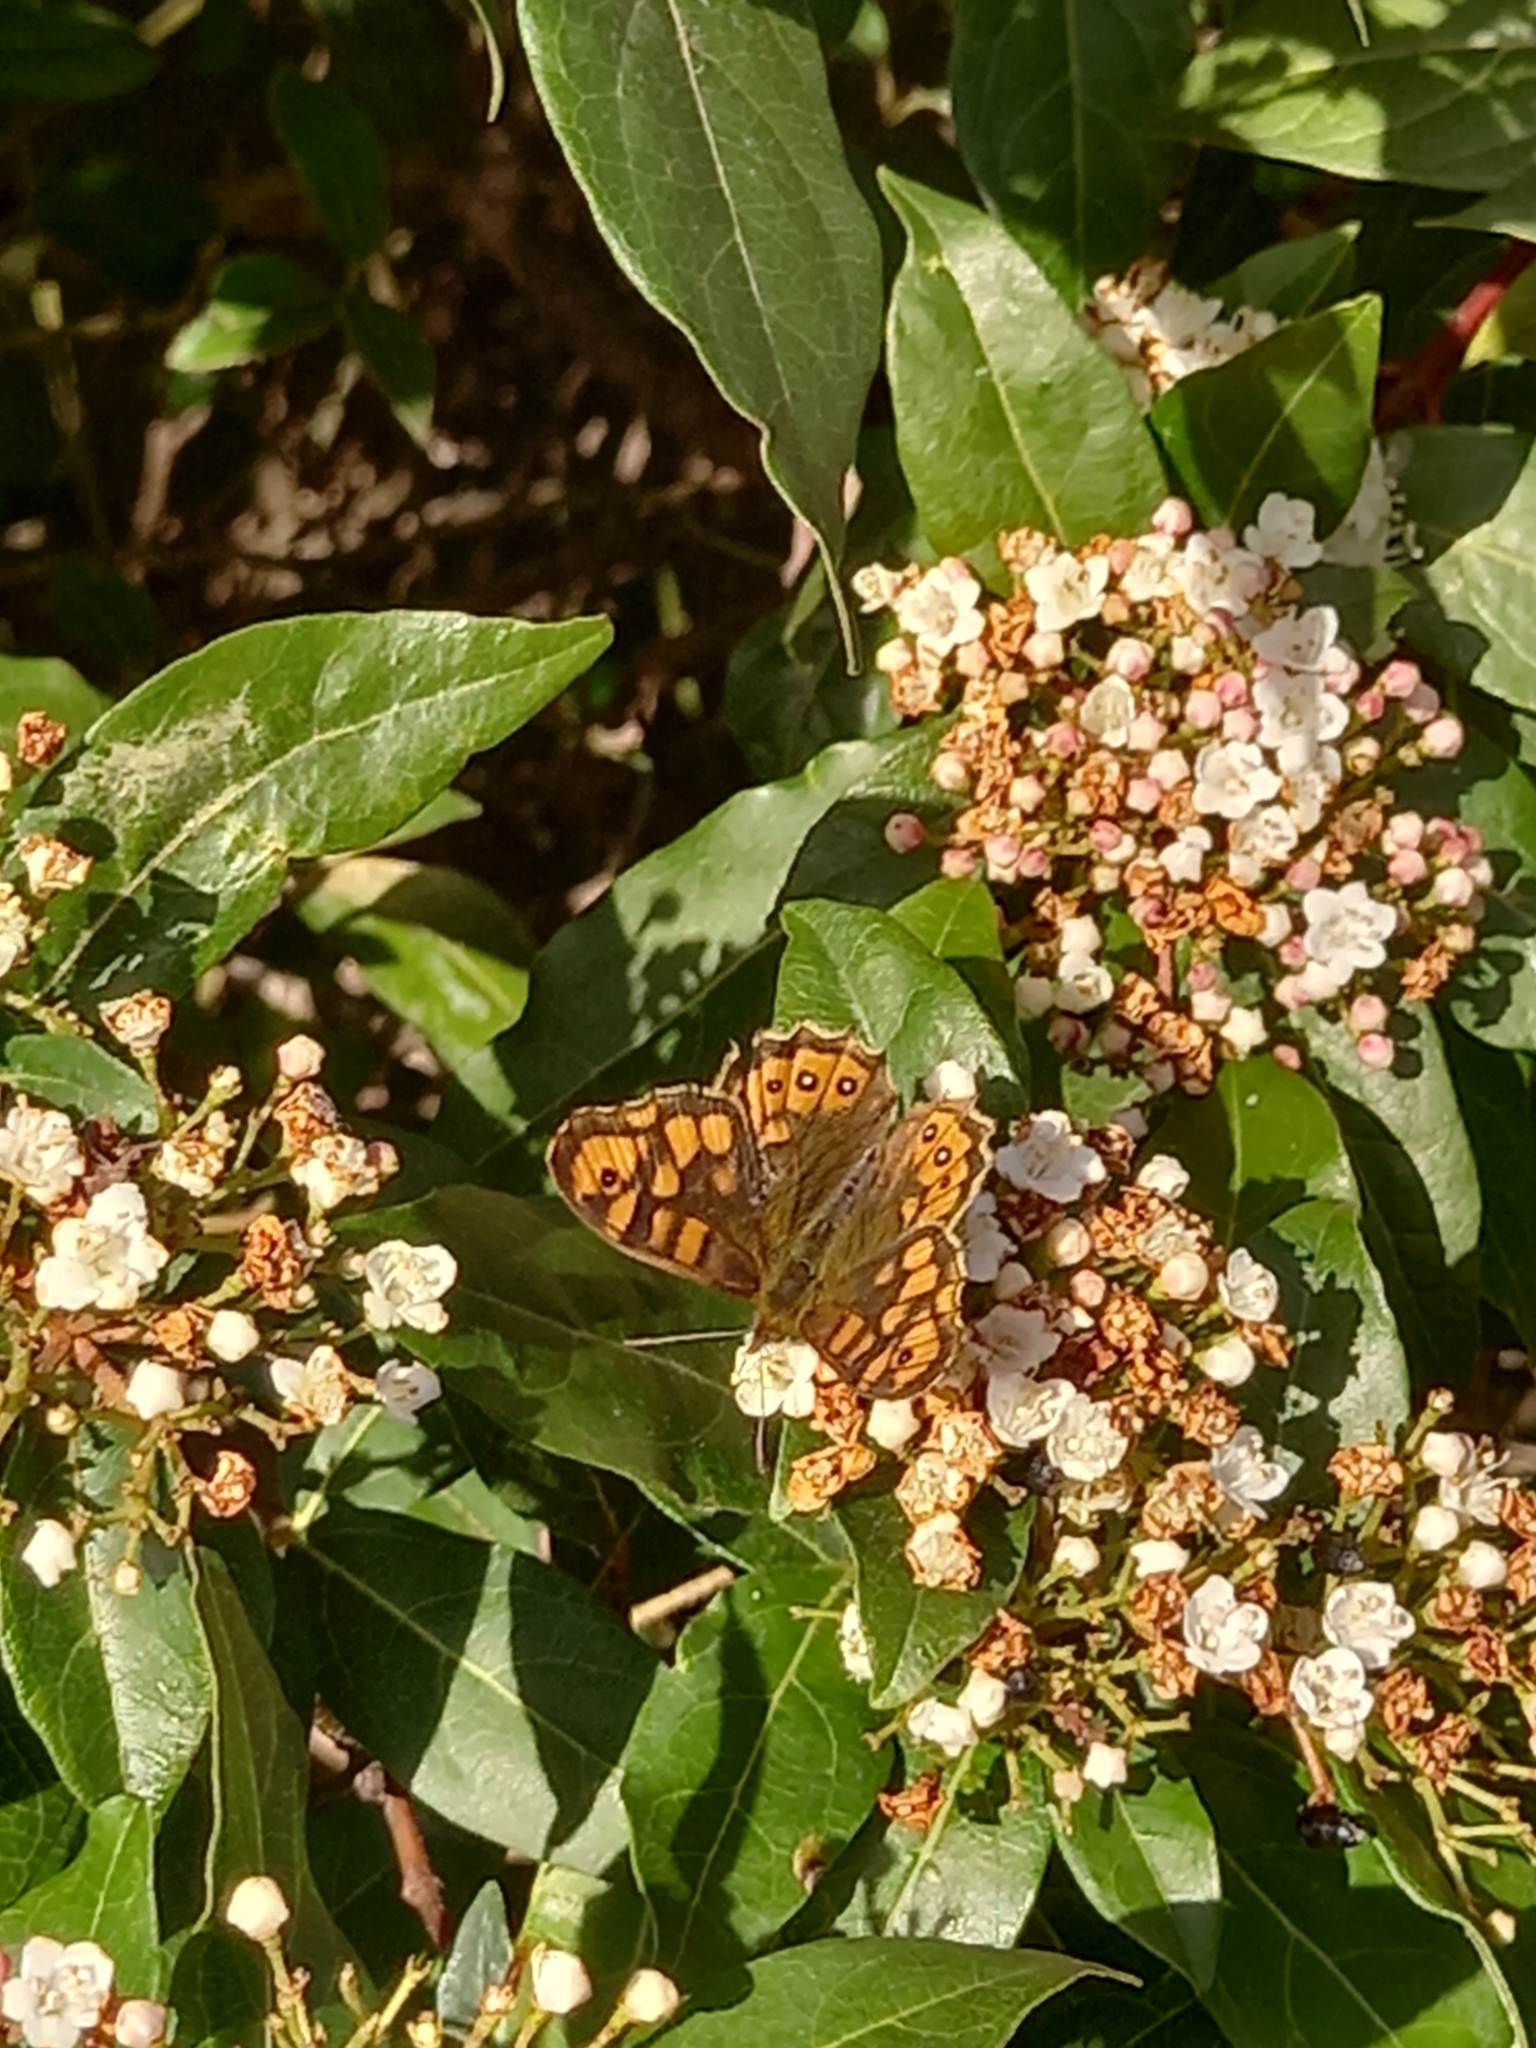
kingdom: Animalia
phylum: Arthropoda
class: Insecta
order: Lepidoptera
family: Nymphalidae
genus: Pararge
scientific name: Pararge aegeria
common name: Speckled wood
